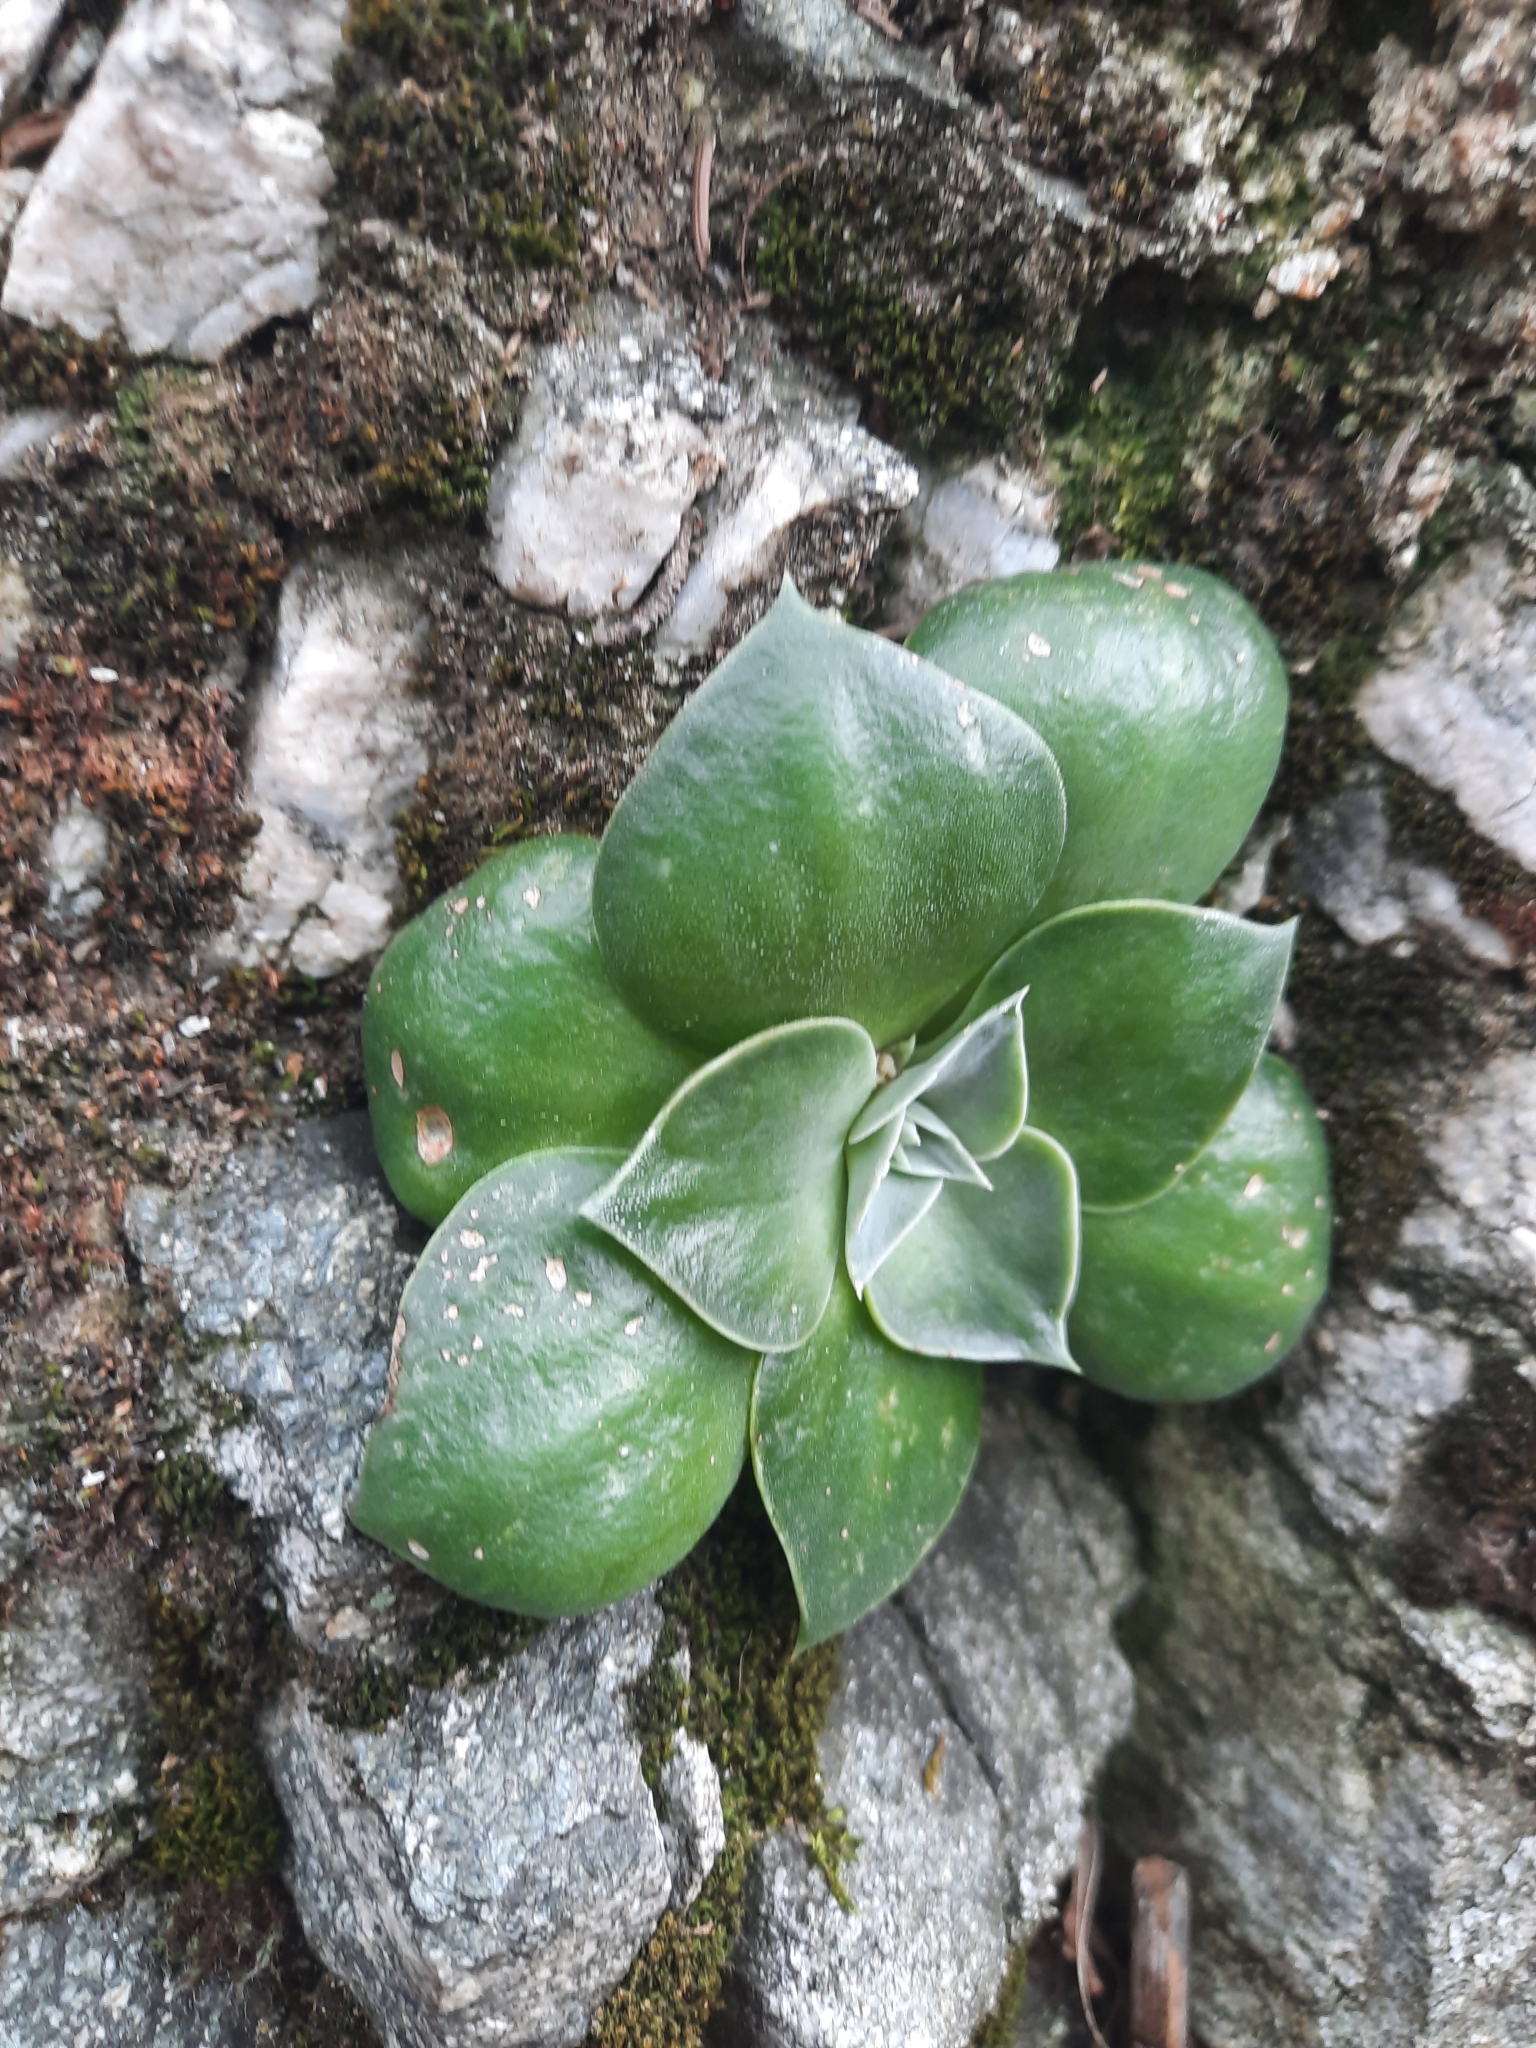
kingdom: Plantae
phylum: Tracheophyta
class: Magnoliopsida
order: Saxifragales
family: Crassulaceae
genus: Dudleya
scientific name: Dudleya cymosa
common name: Canyon dudleya
